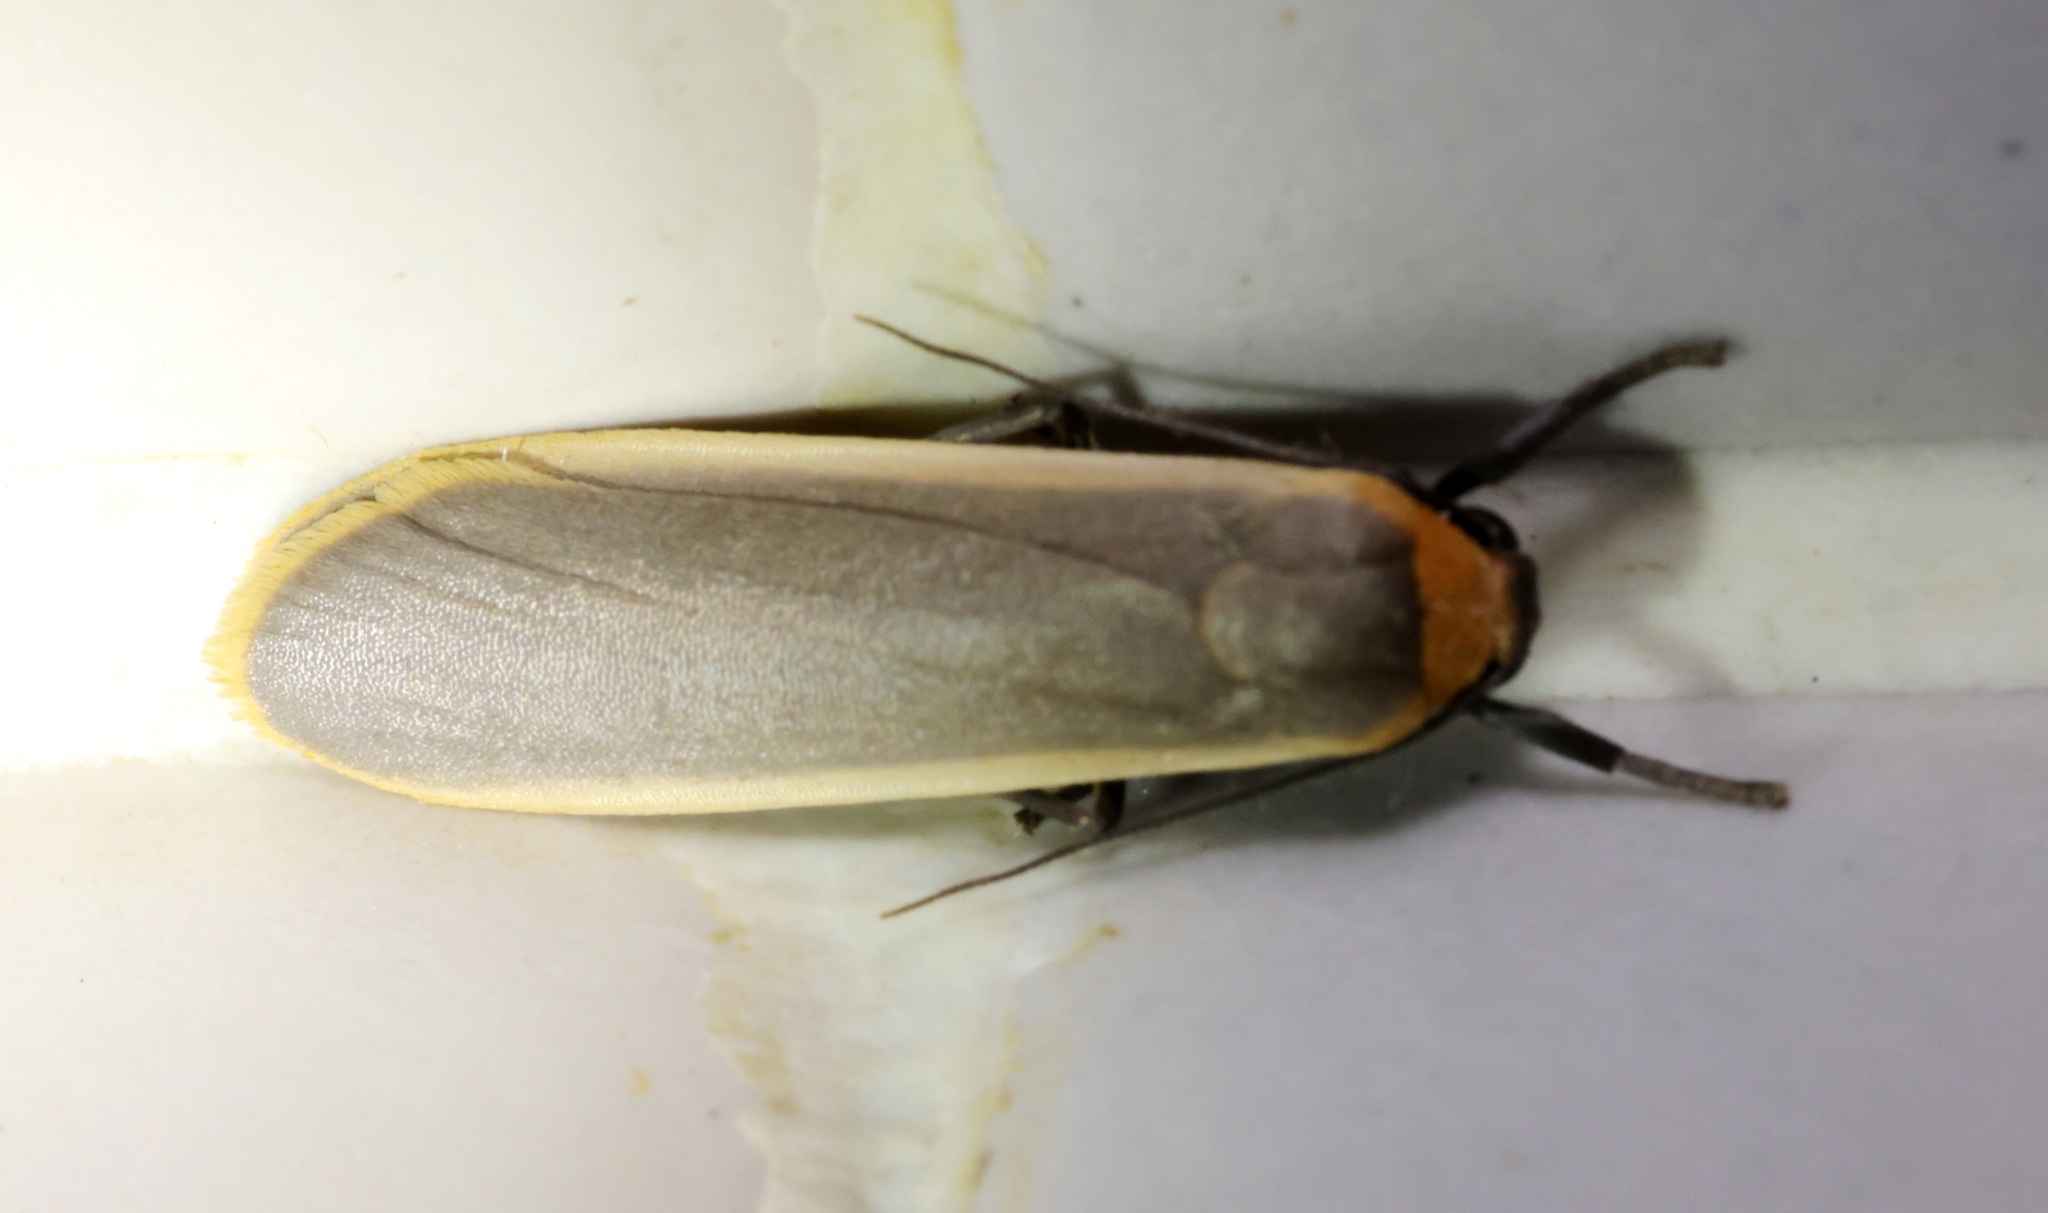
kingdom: Animalia
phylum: Arthropoda
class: Insecta
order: Lepidoptera
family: Erebidae
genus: Brunia
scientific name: Brunia antica
